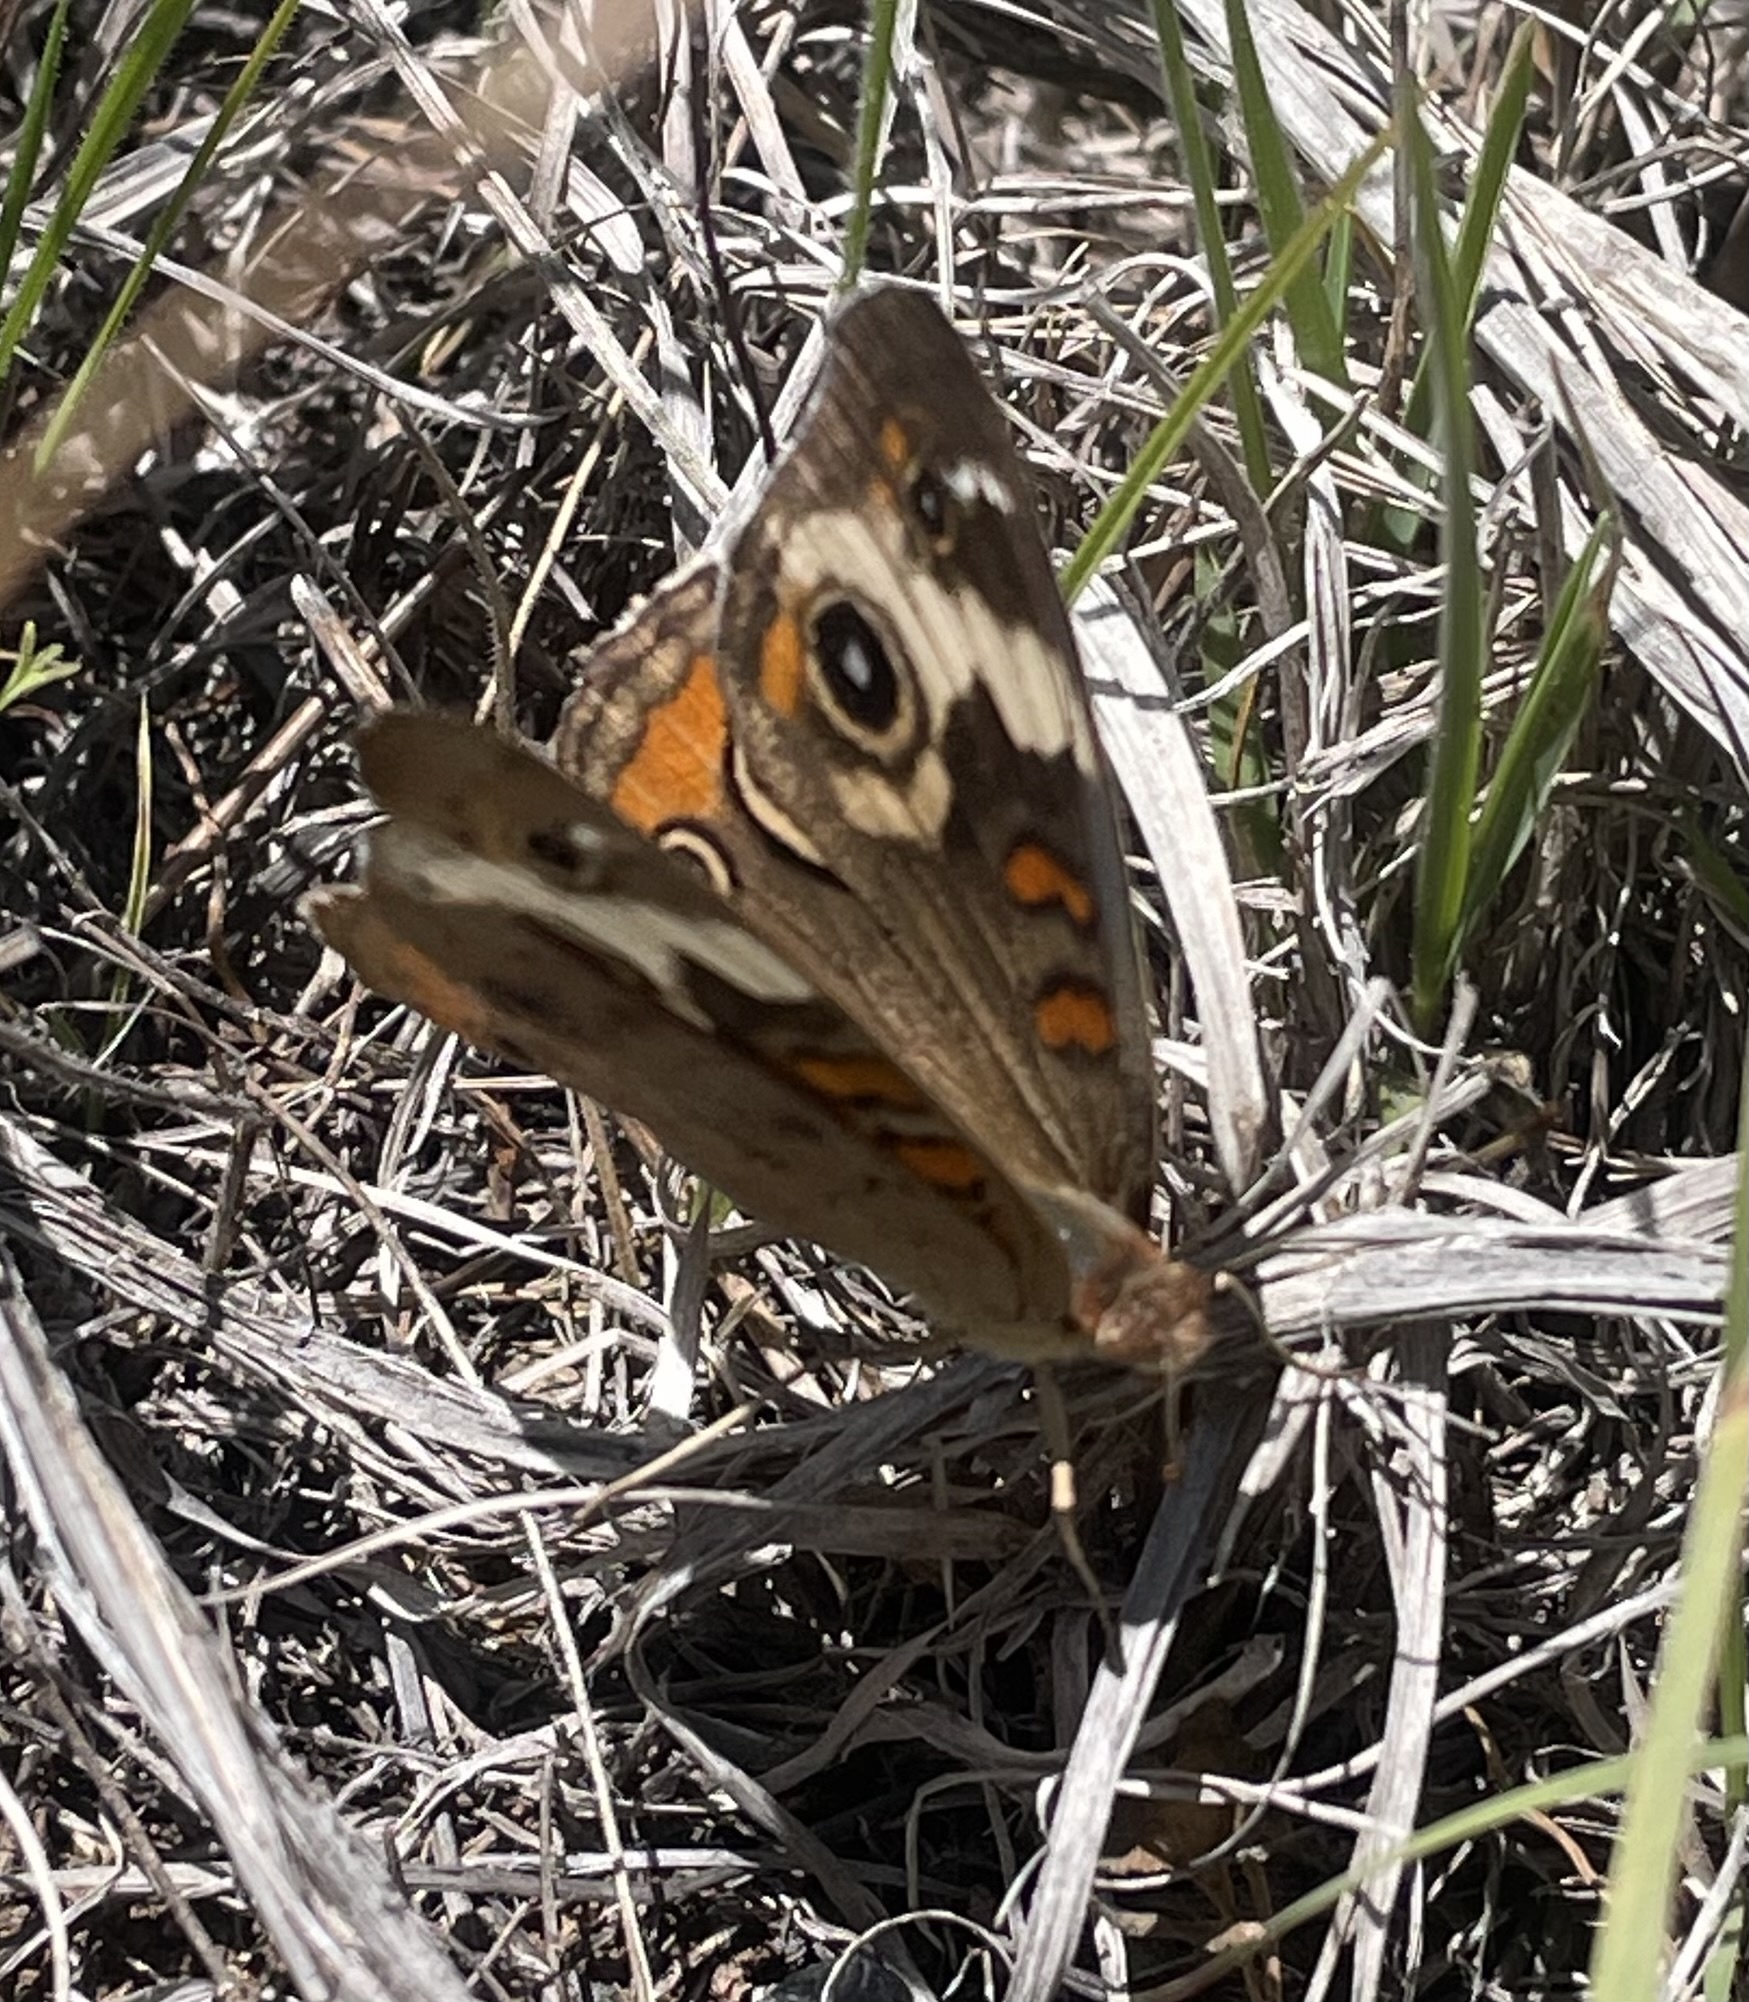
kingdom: Animalia
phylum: Arthropoda
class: Insecta
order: Lepidoptera
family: Nymphalidae
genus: Junonia
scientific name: Junonia coenia
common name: Common buckeye
